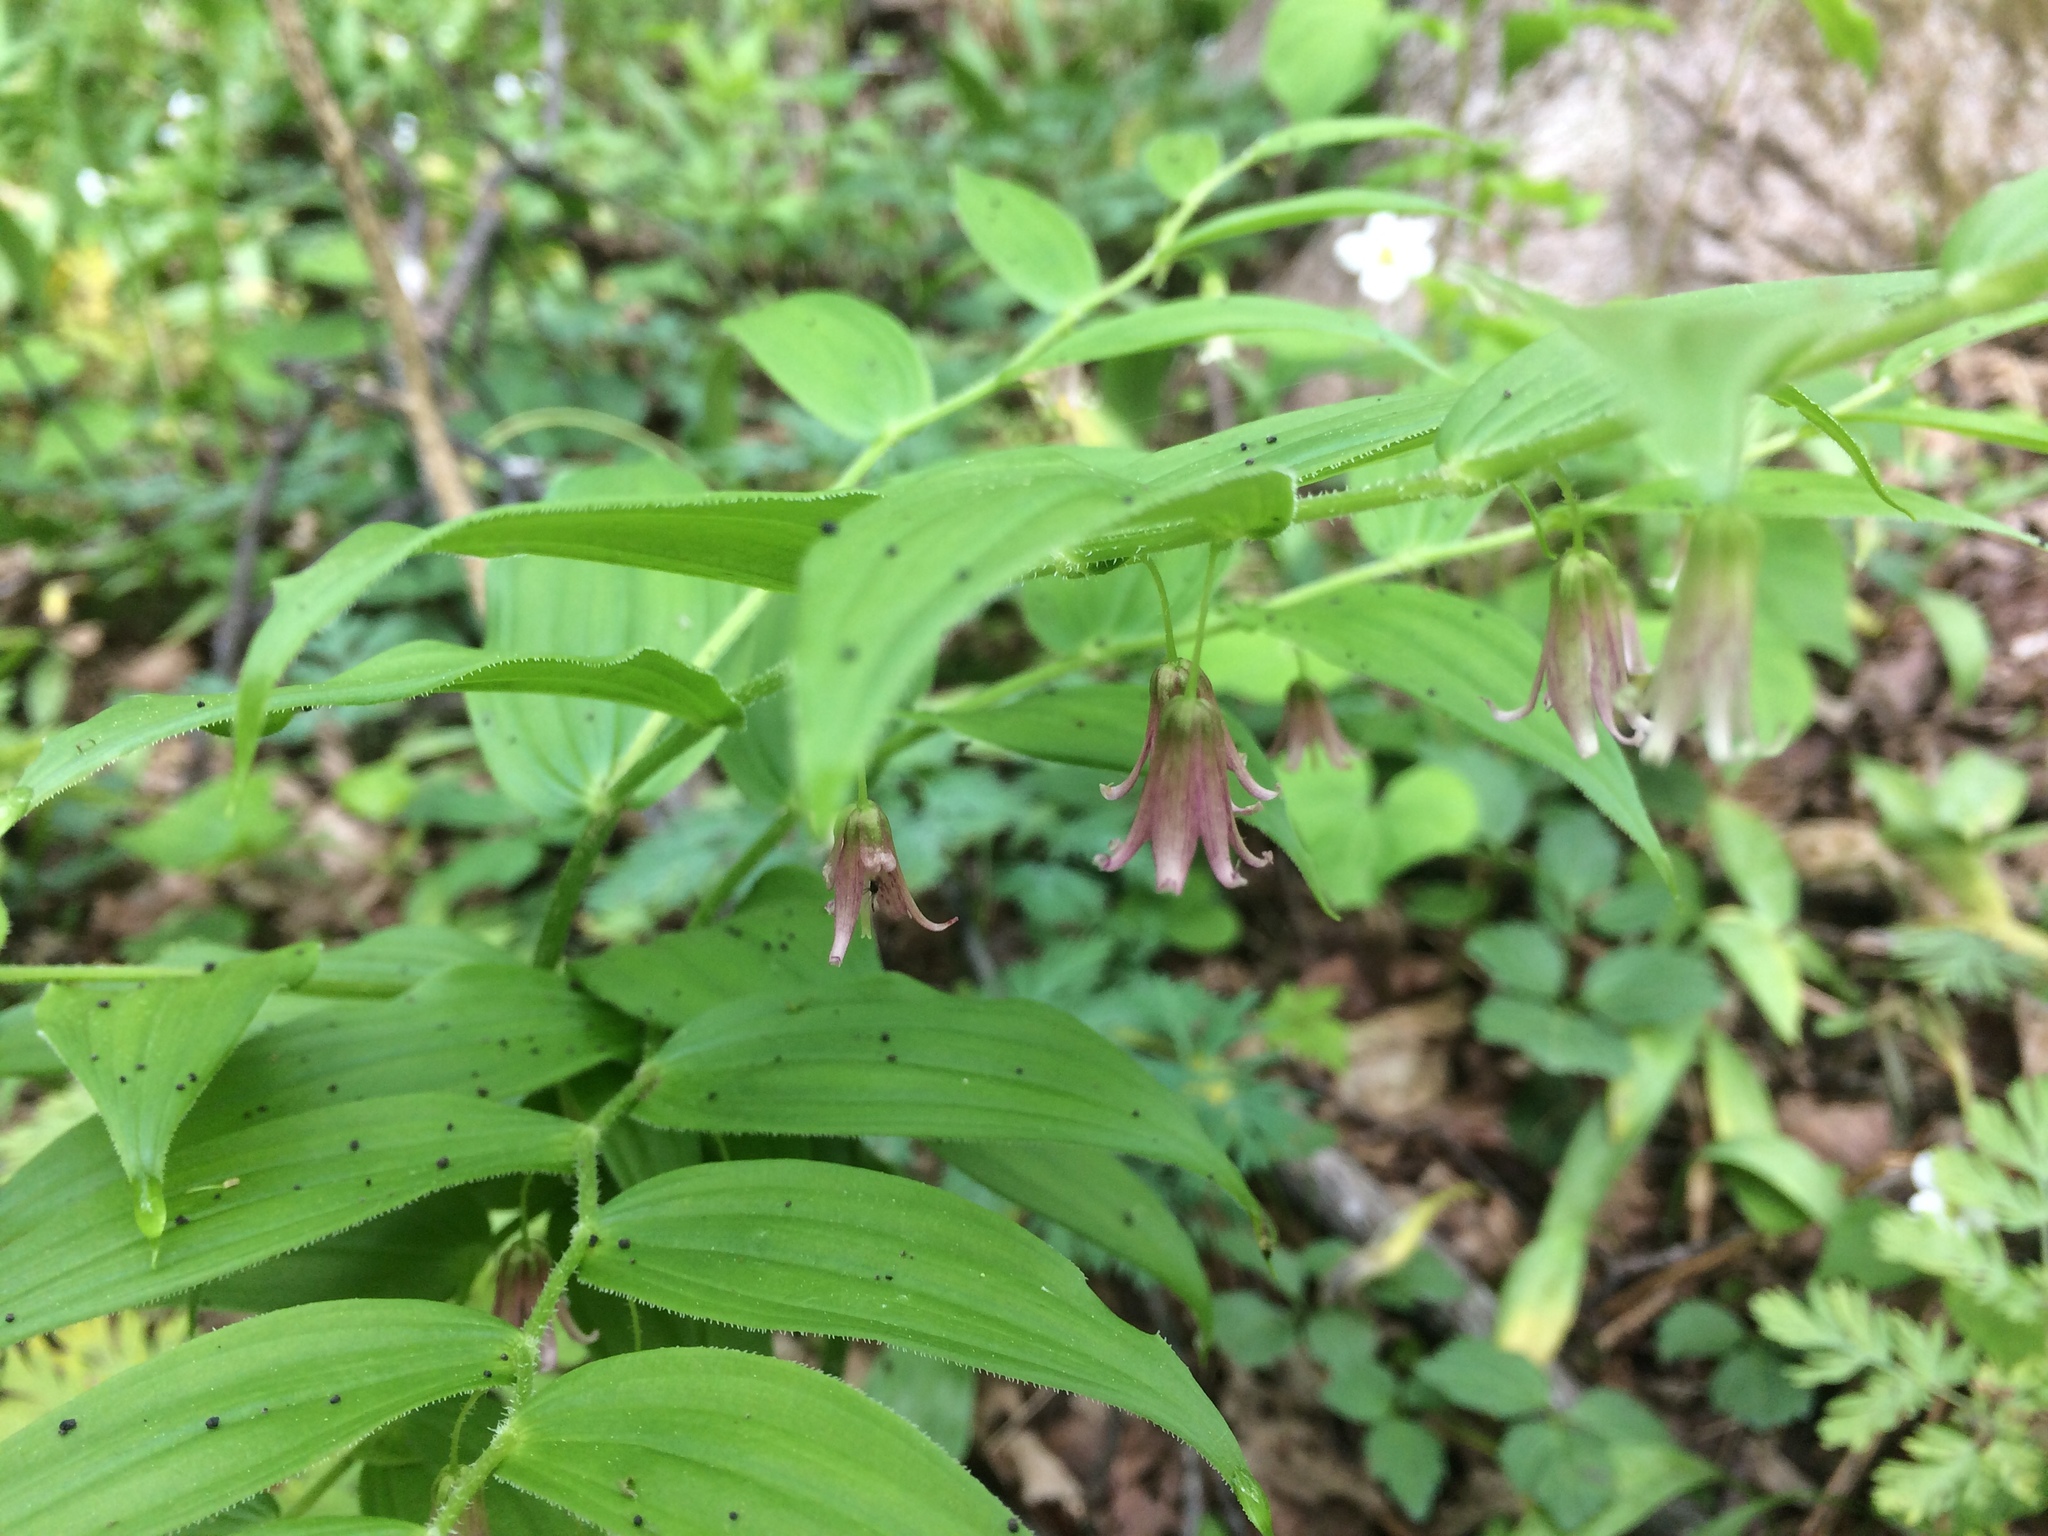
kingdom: Plantae
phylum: Tracheophyta
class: Liliopsida
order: Liliales
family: Liliaceae
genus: Streptopus
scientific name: Streptopus lanceolatus
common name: Rose mandarin
